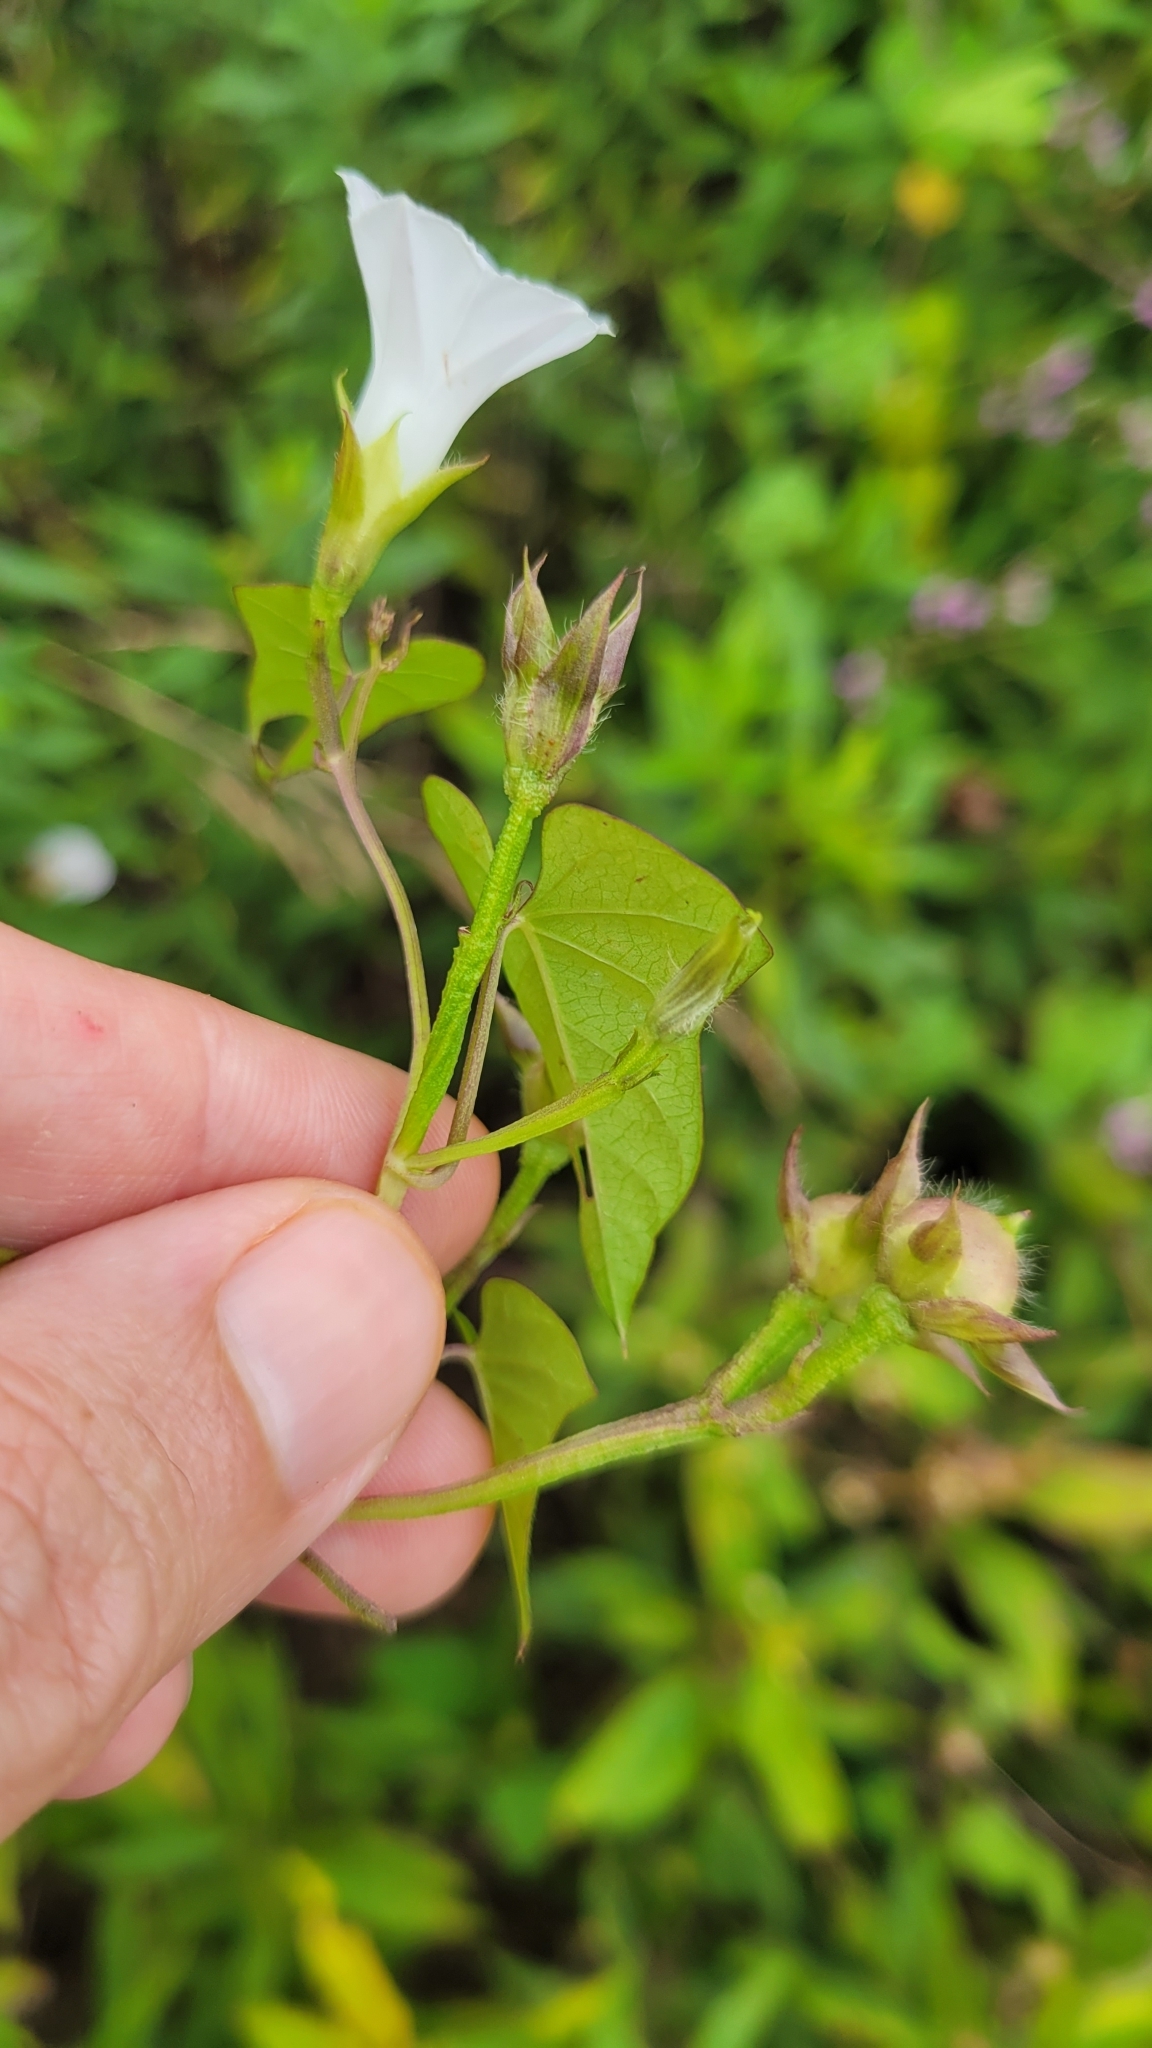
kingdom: Plantae
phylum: Tracheophyta
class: Magnoliopsida
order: Solanales
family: Convolvulaceae
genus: Ipomoea
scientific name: Ipomoea lacunosa
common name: White morning-glory
